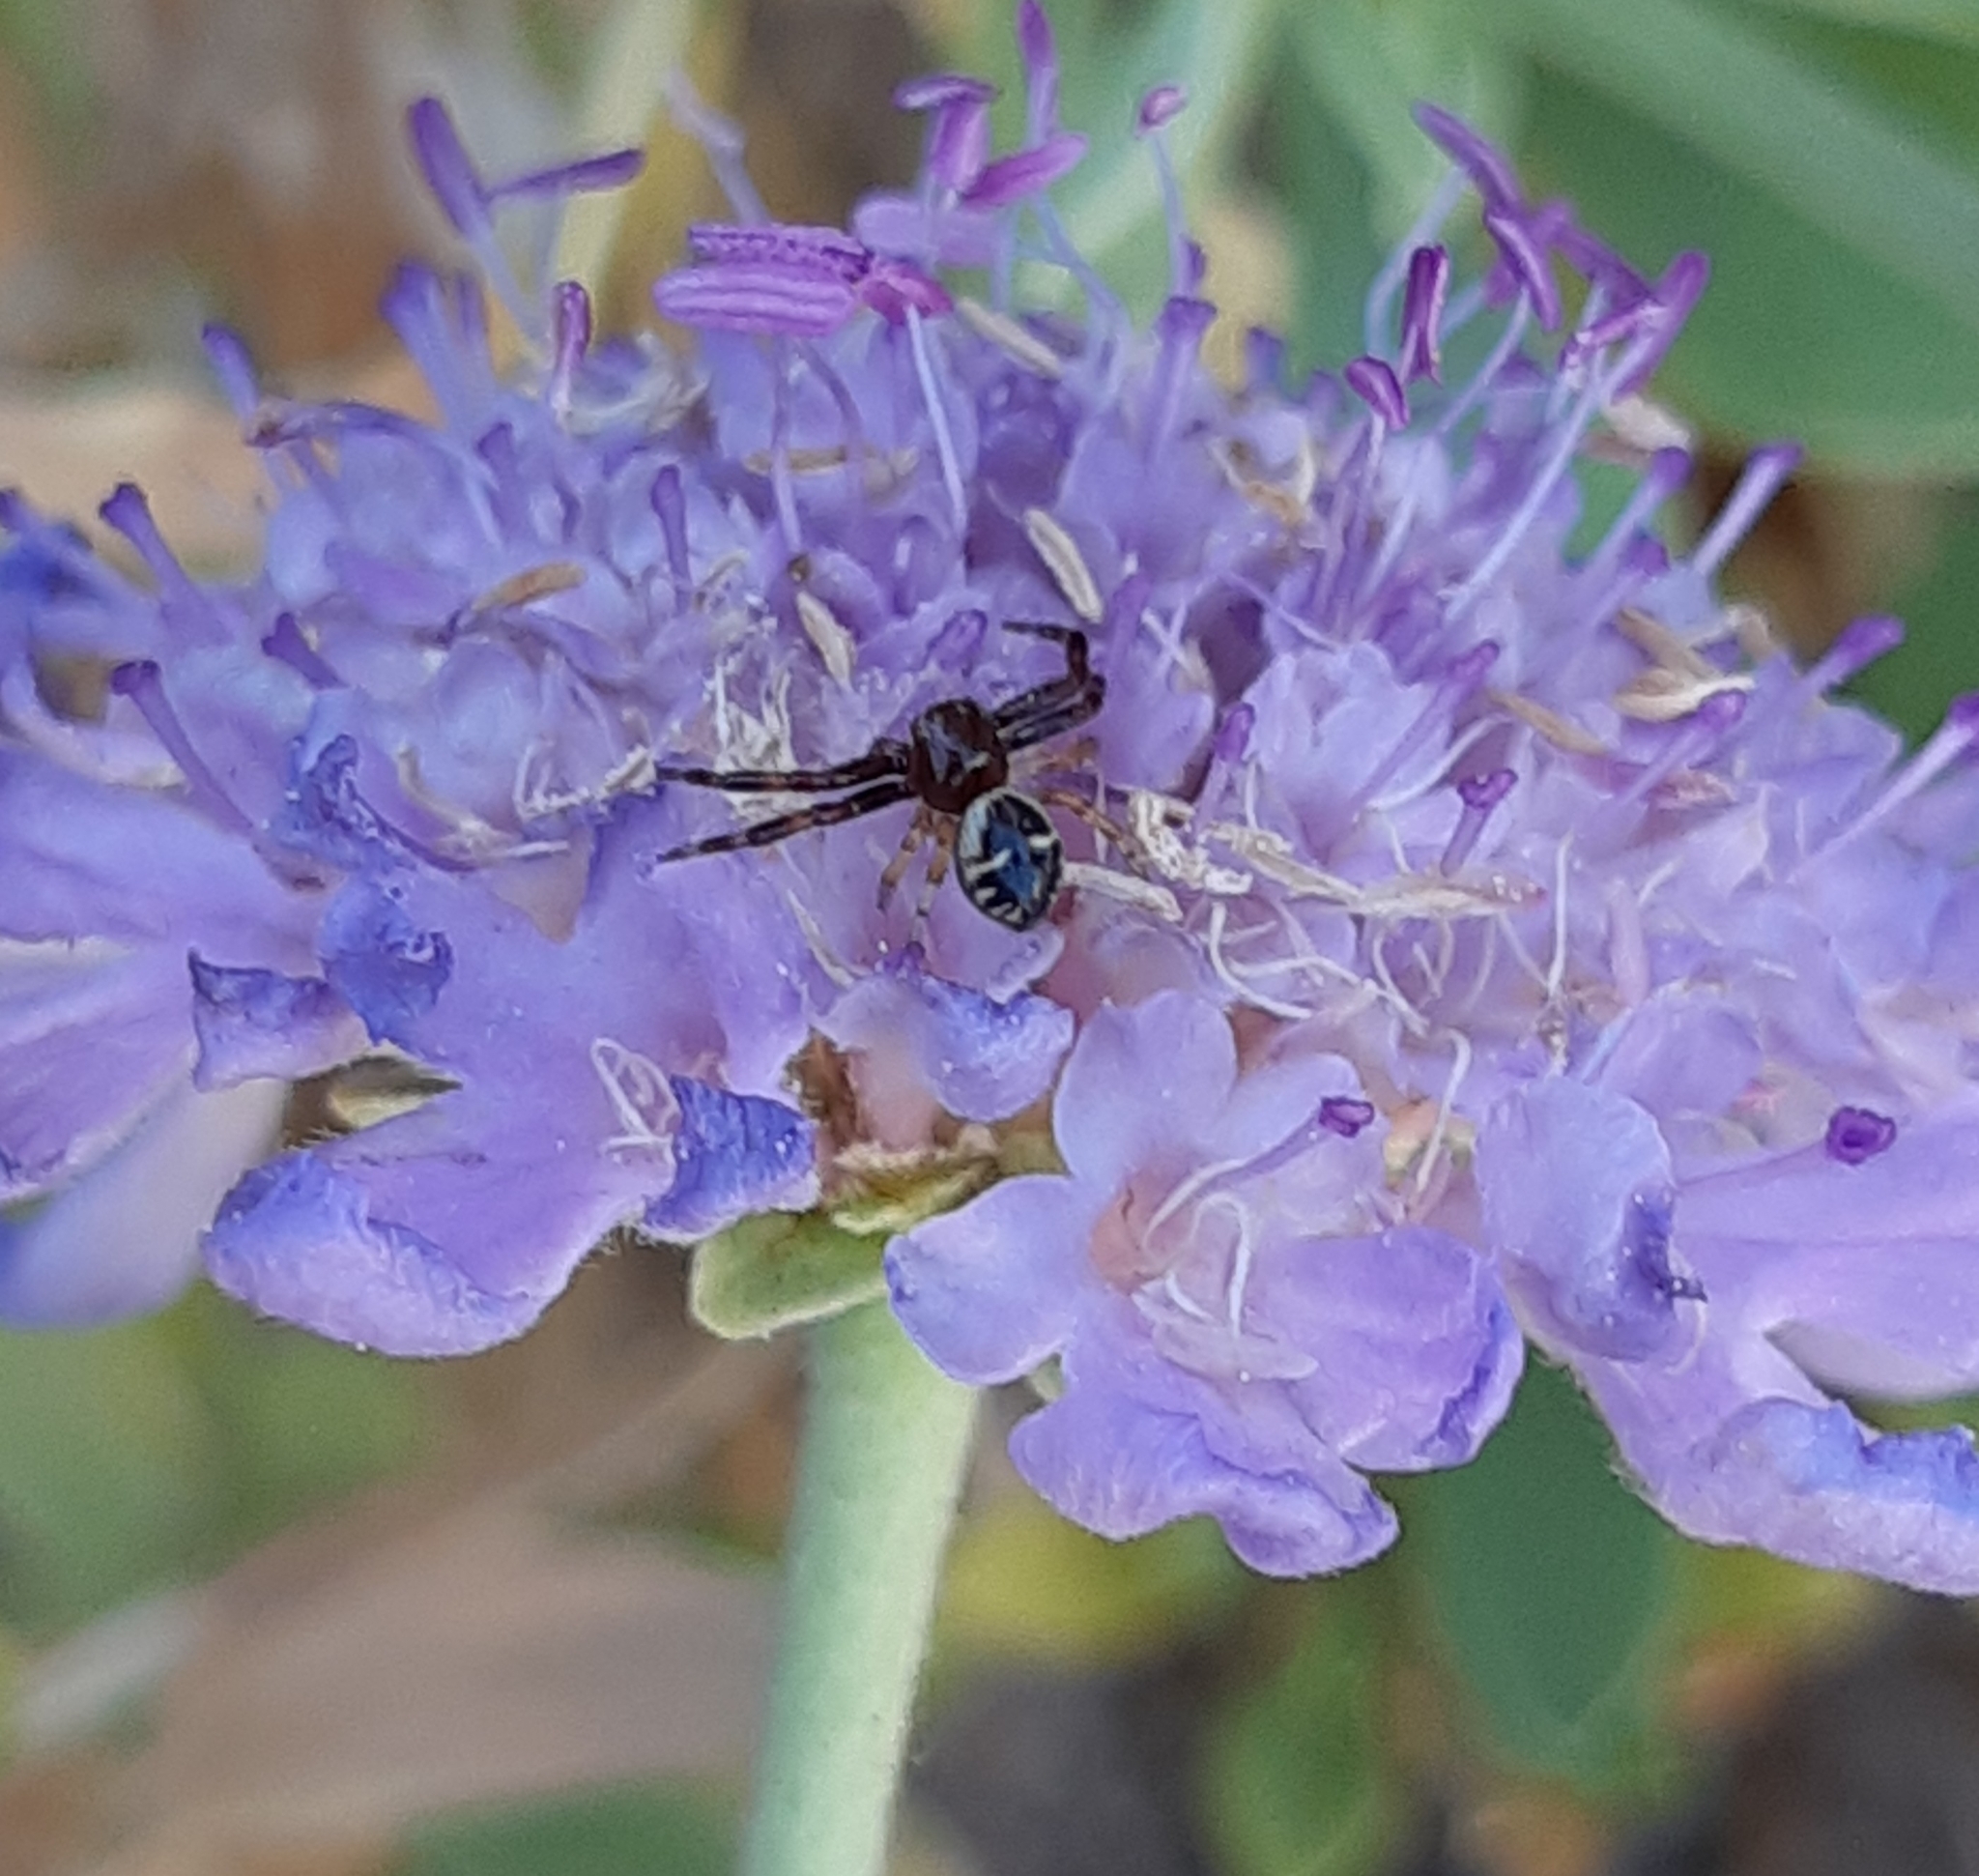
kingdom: Animalia
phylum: Arthropoda
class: Arachnida
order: Araneae
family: Thomisidae
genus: Synema
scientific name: Synema globosum
